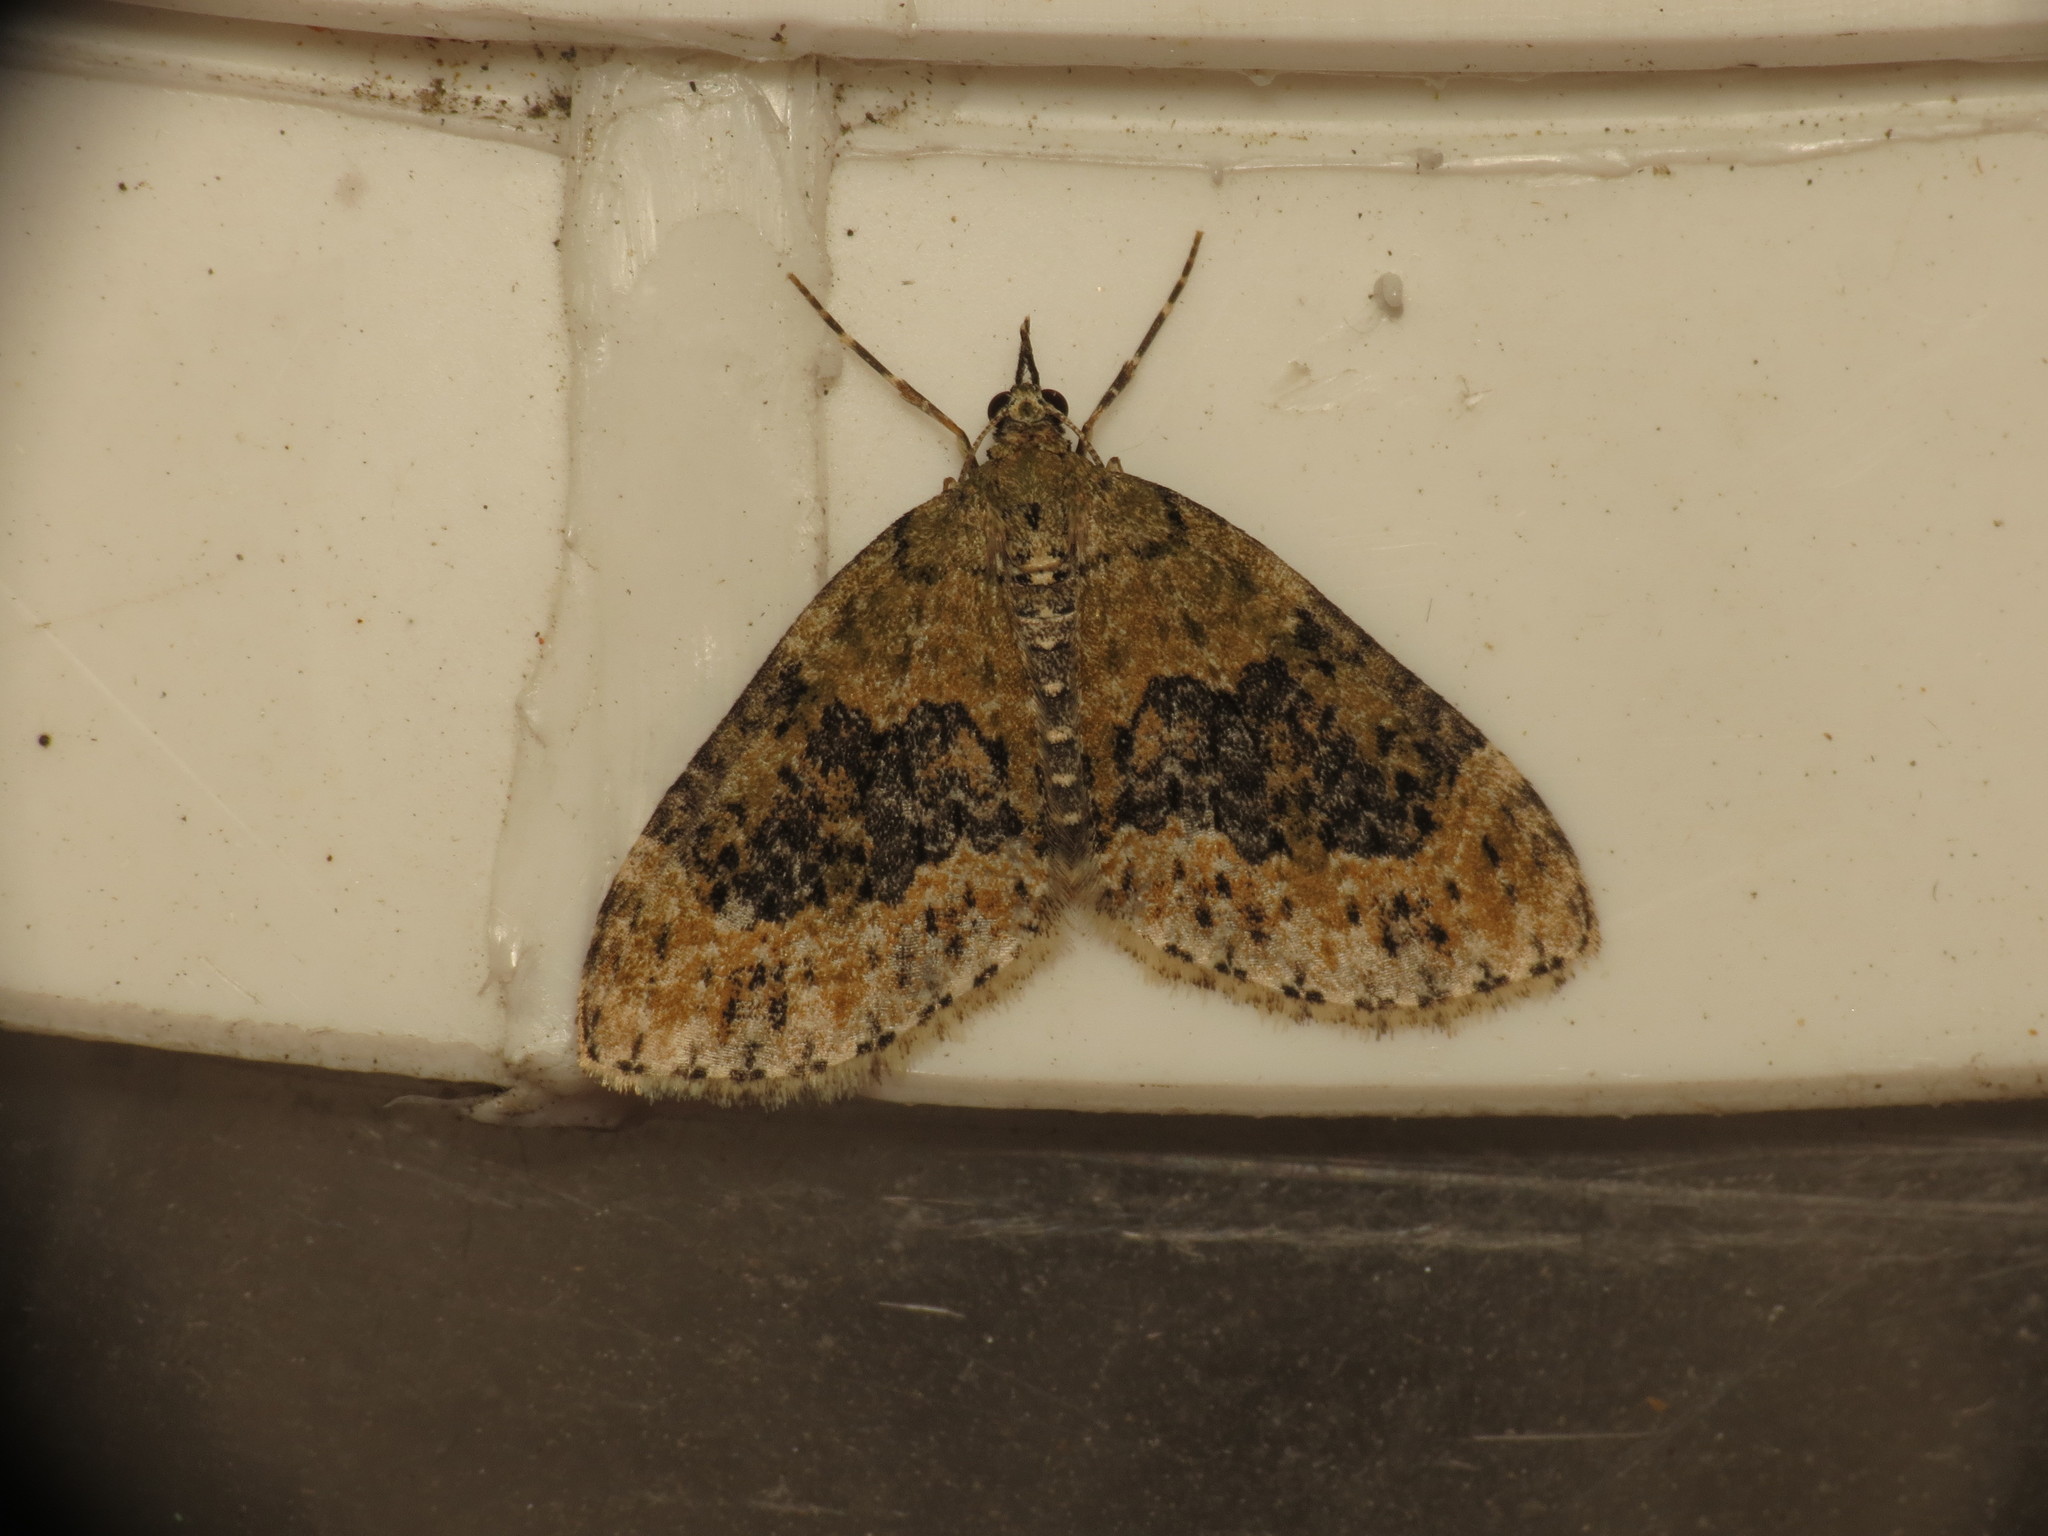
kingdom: Animalia
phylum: Arthropoda
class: Insecta
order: Lepidoptera
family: Geometridae
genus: Acasis
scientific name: Acasis viretata
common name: Yellow-barred brindle
